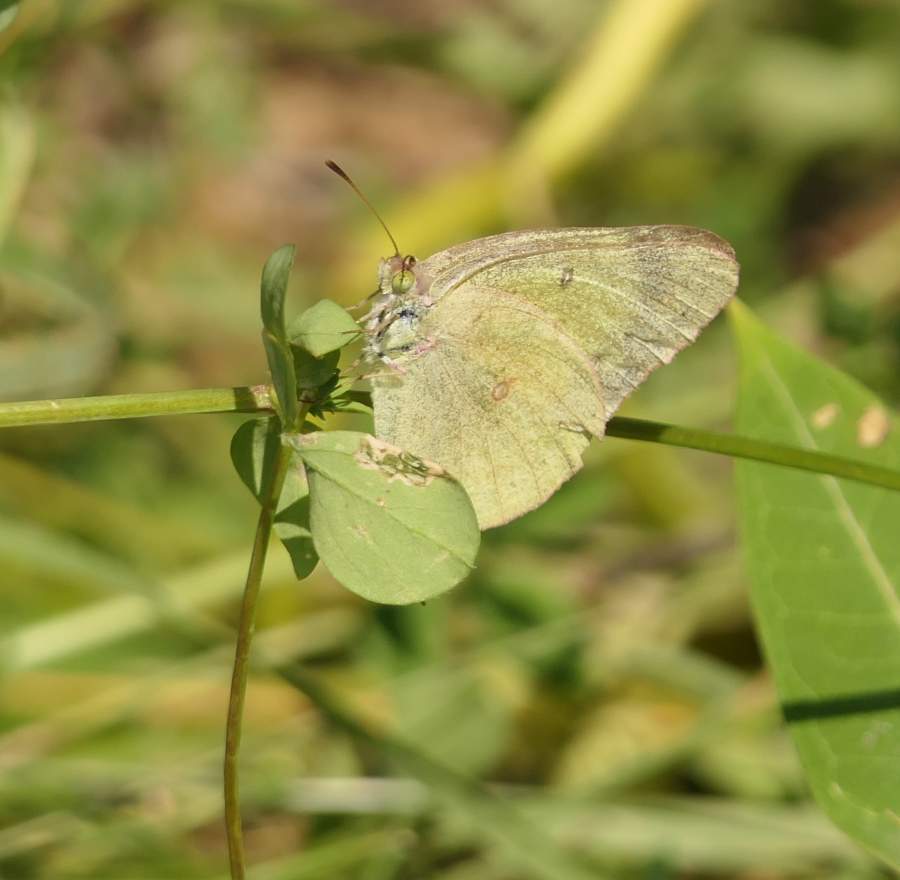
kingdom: Animalia
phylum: Arthropoda
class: Insecta
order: Lepidoptera
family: Pieridae
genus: Colias
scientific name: Colias philodice
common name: Clouded sulphur
